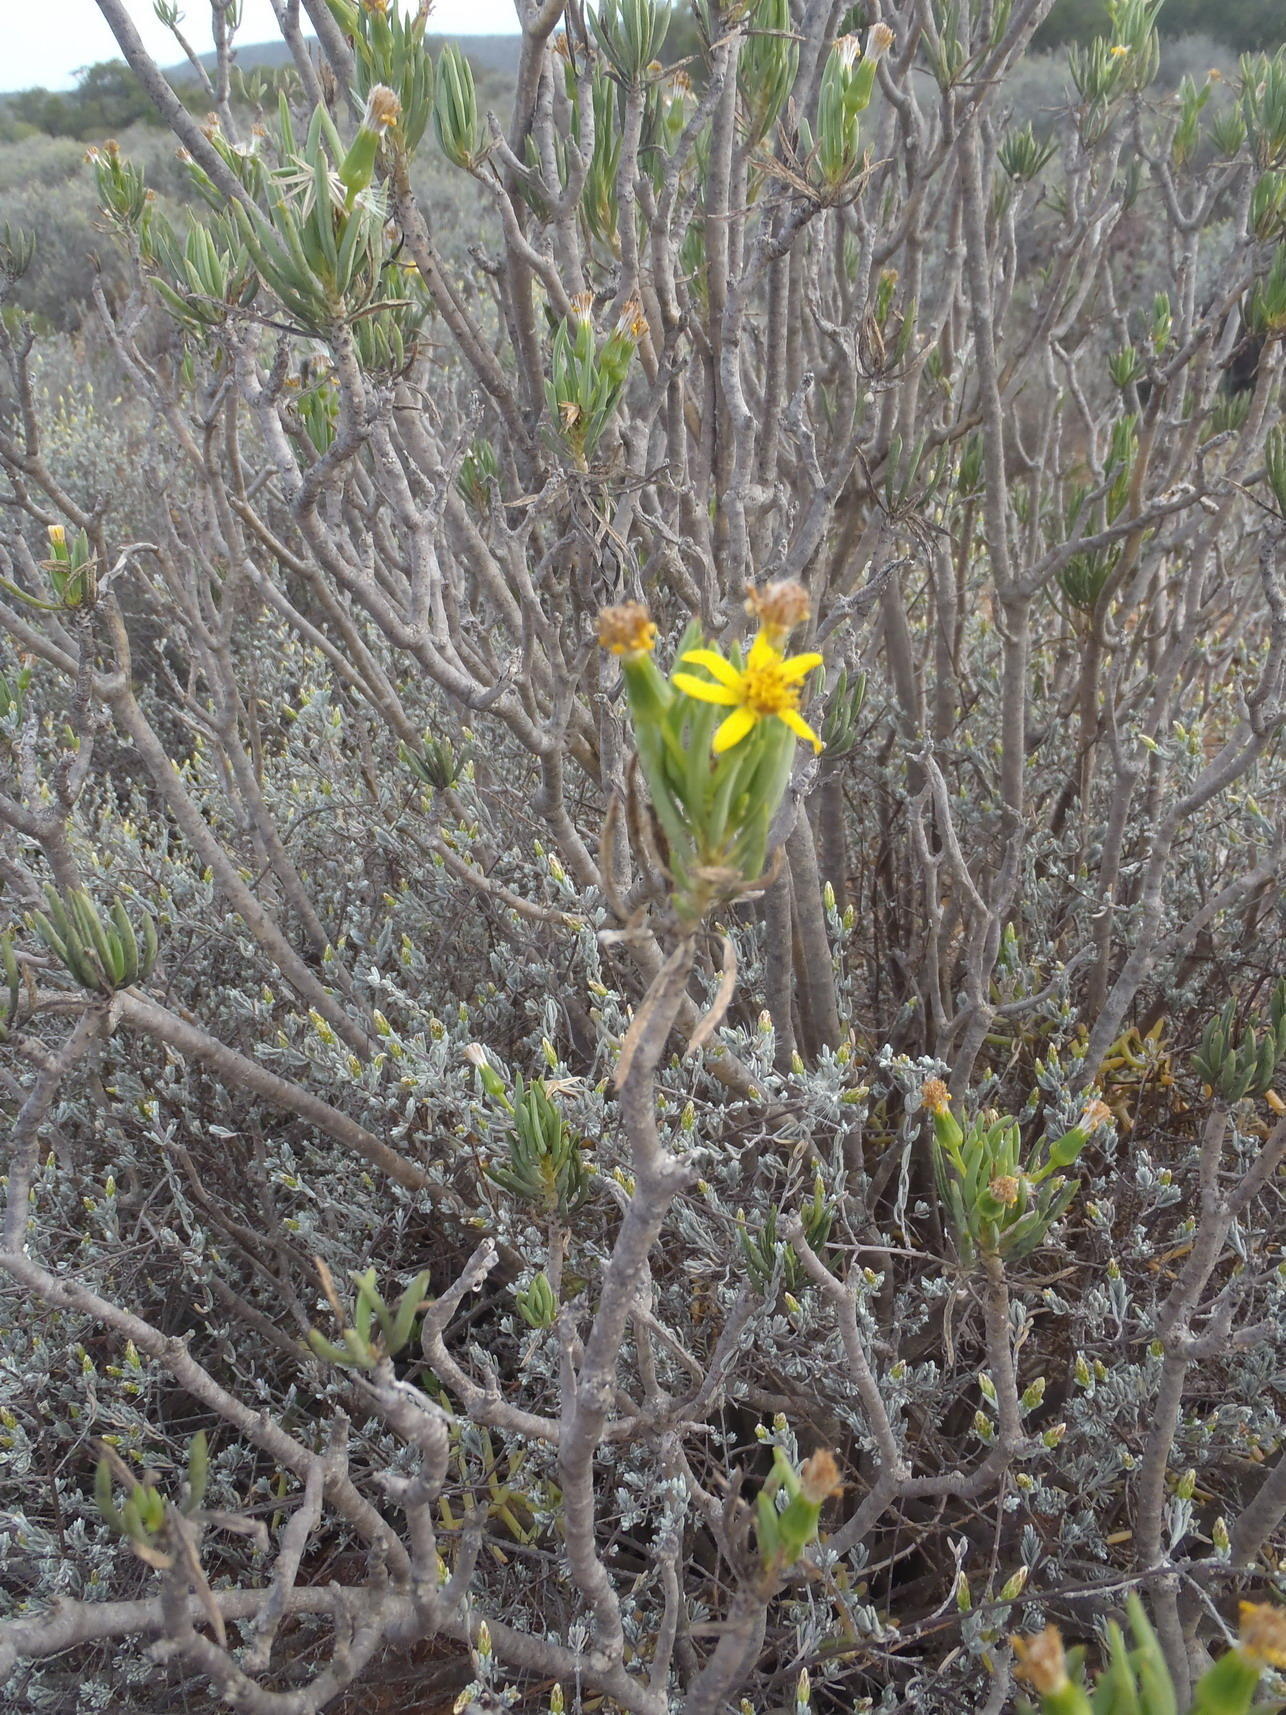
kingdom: Plantae
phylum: Tracheophyta
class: Magnoliopsida
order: Asterales
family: Asteraceae
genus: Senecio
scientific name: Senecio cotyledonis
